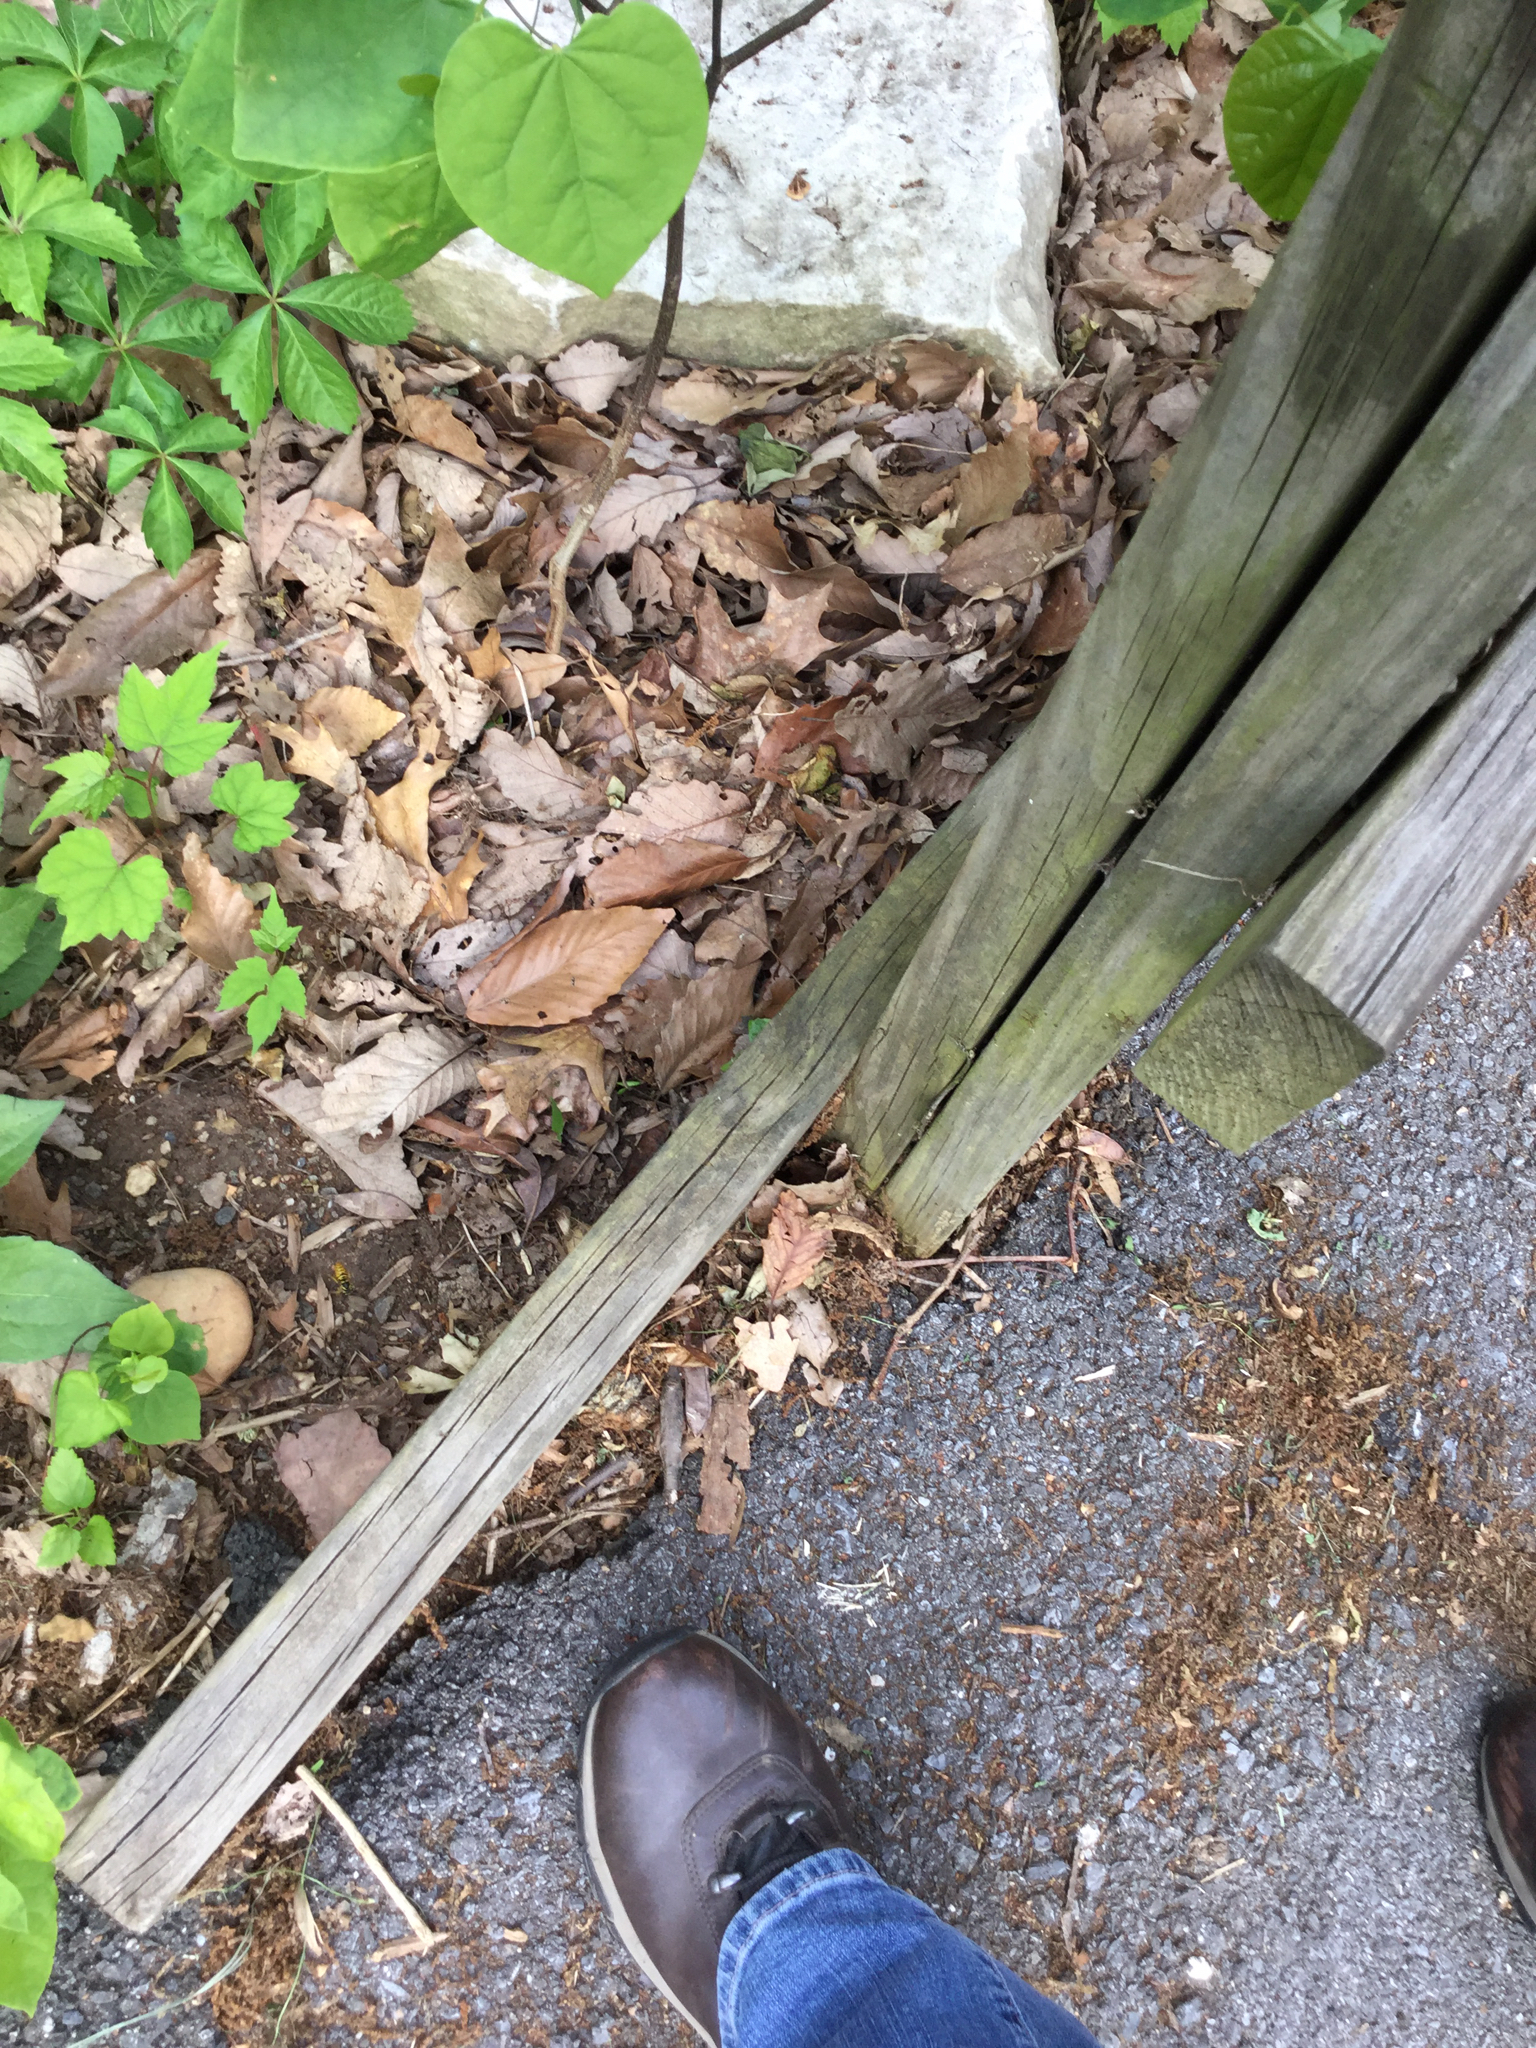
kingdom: Animalia
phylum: Arthropoda
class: Insecta
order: Hymenoptera
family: Vespidae
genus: Vespula
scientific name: Vespula
